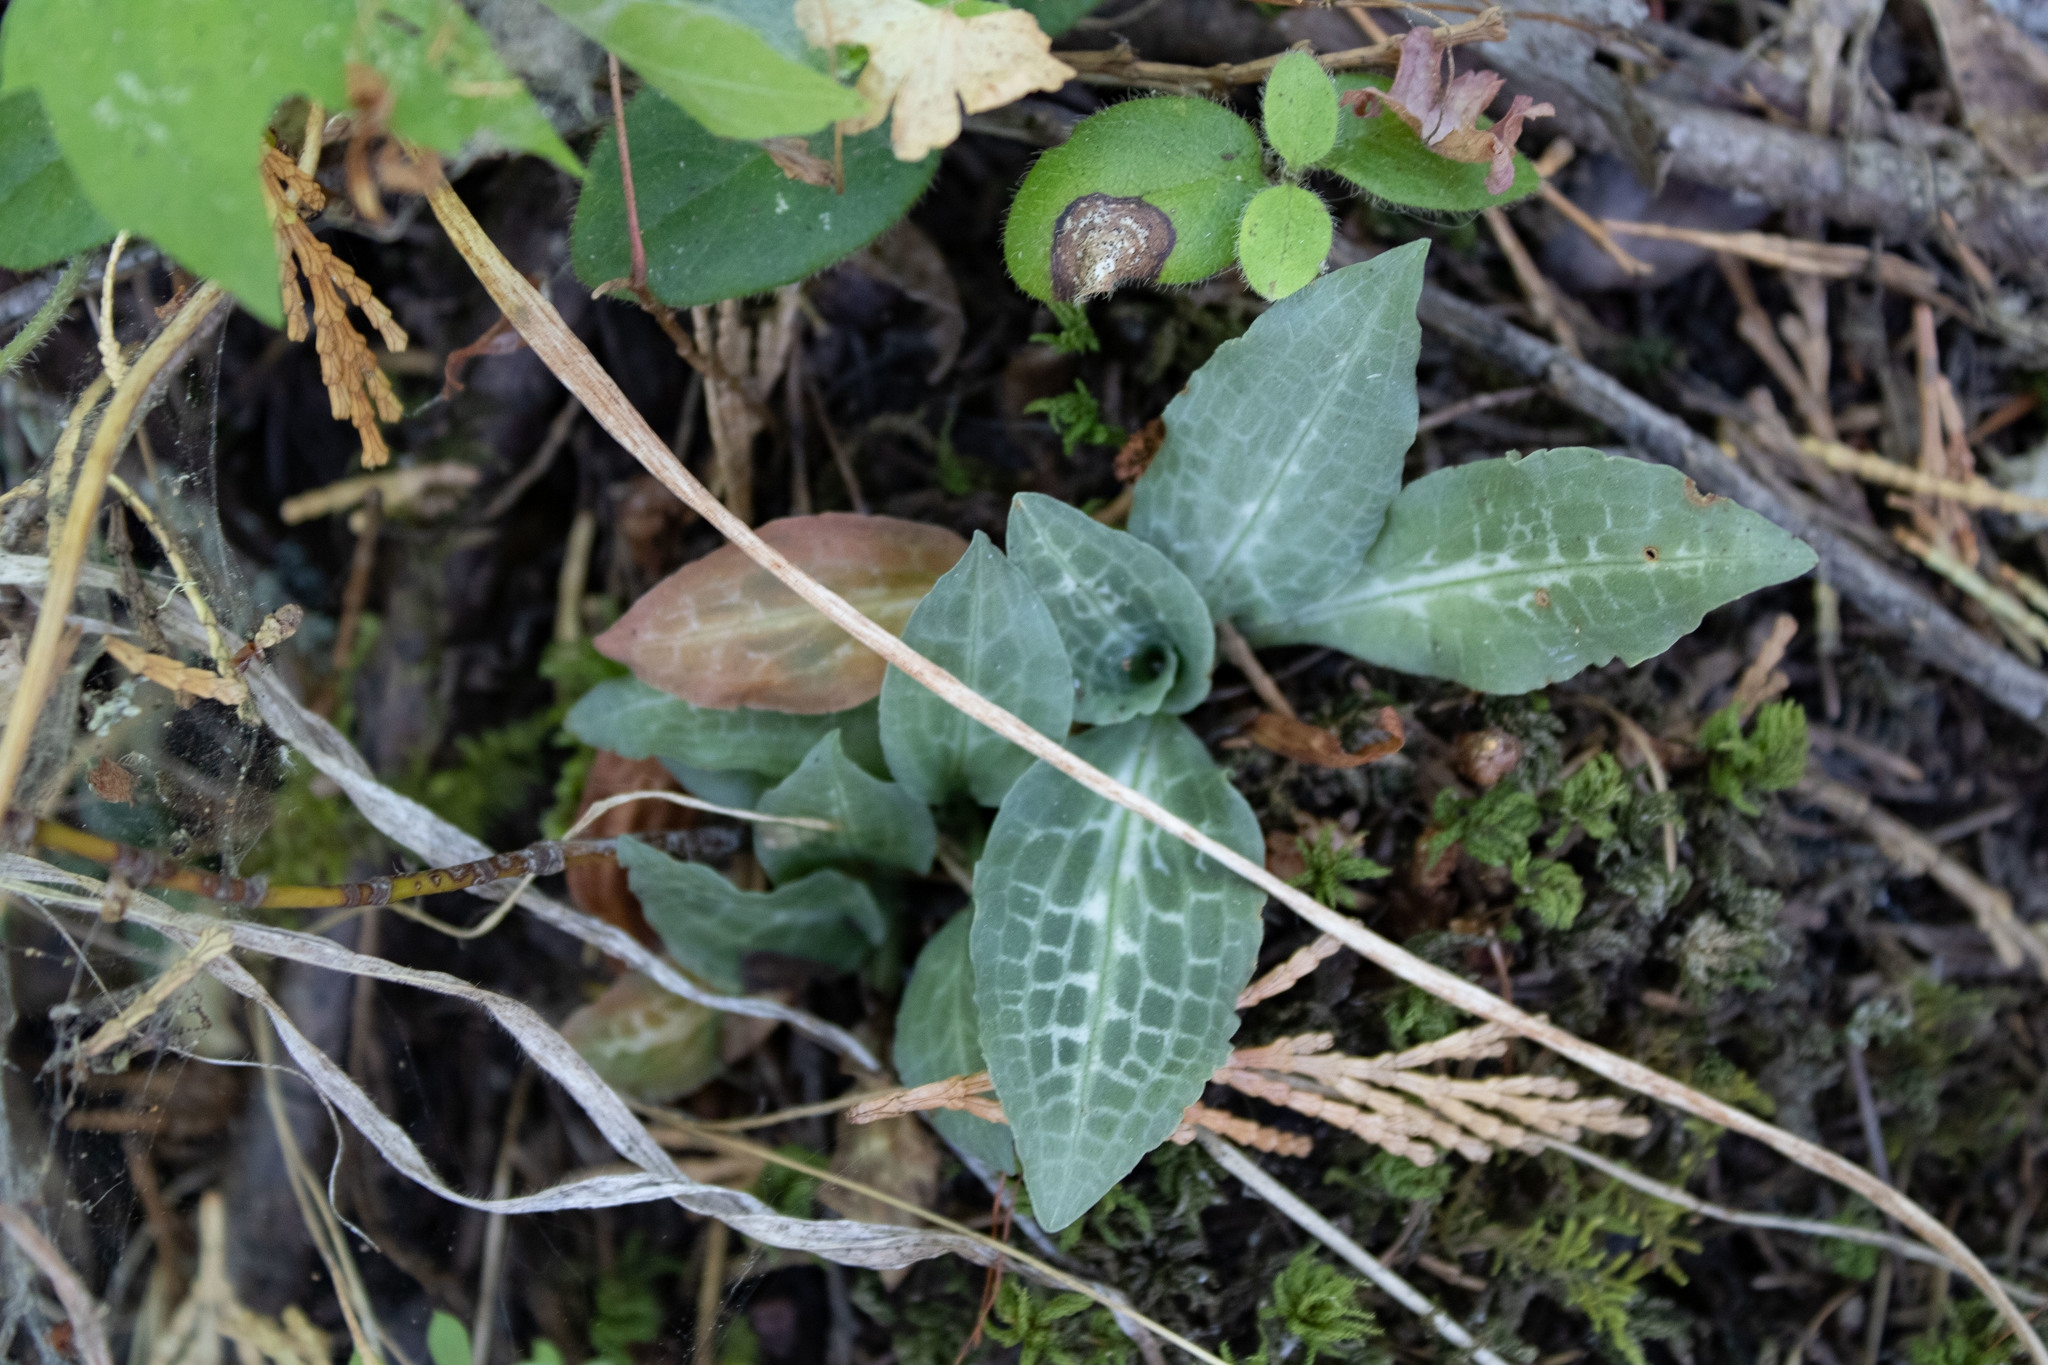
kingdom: Plantae
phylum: Tracheophyta
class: Liliopsida
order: Asparagales
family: Orchidaceae
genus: Goodyera
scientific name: Goodyera oblongifolia
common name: Giant rattlesnake-plantain
